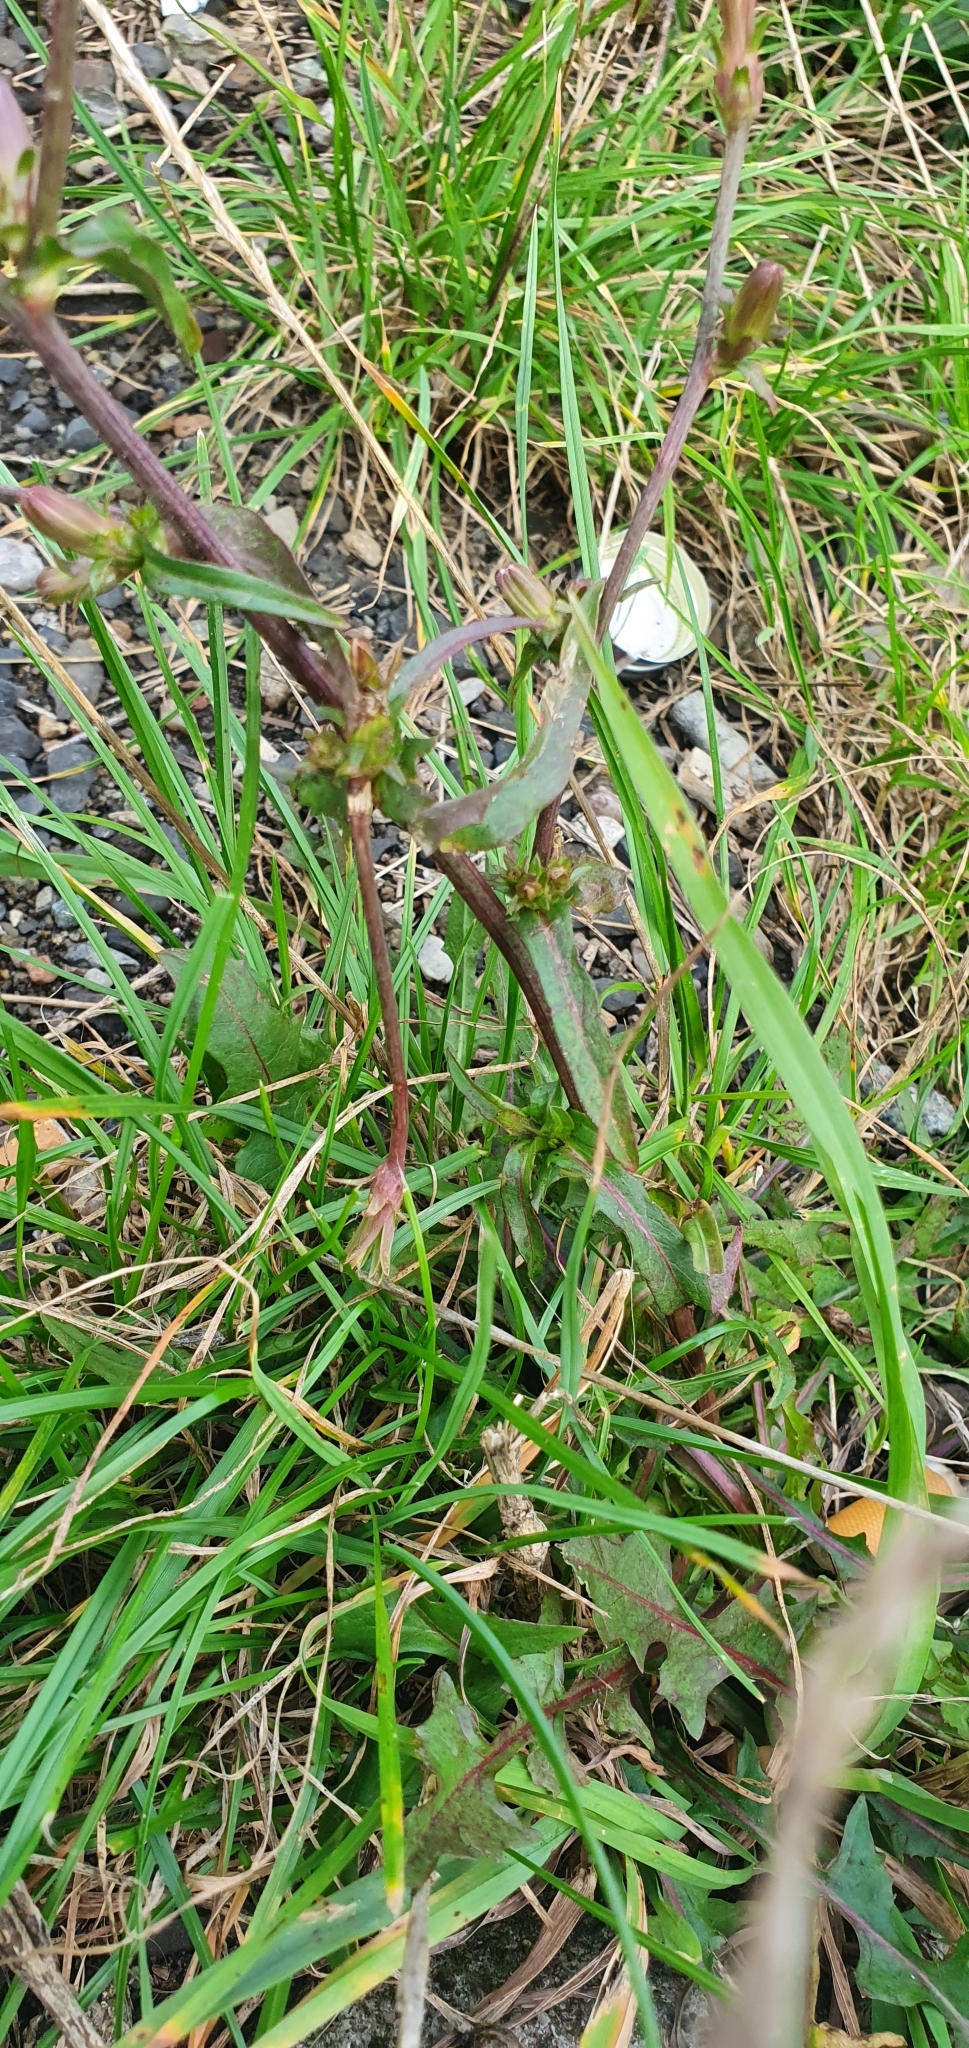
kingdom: Plantae
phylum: Tracheophyta
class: Magnoliopsida
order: Asterales
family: Asteraceae
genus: Cichorium
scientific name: Cichorium intybus
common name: Chicory
